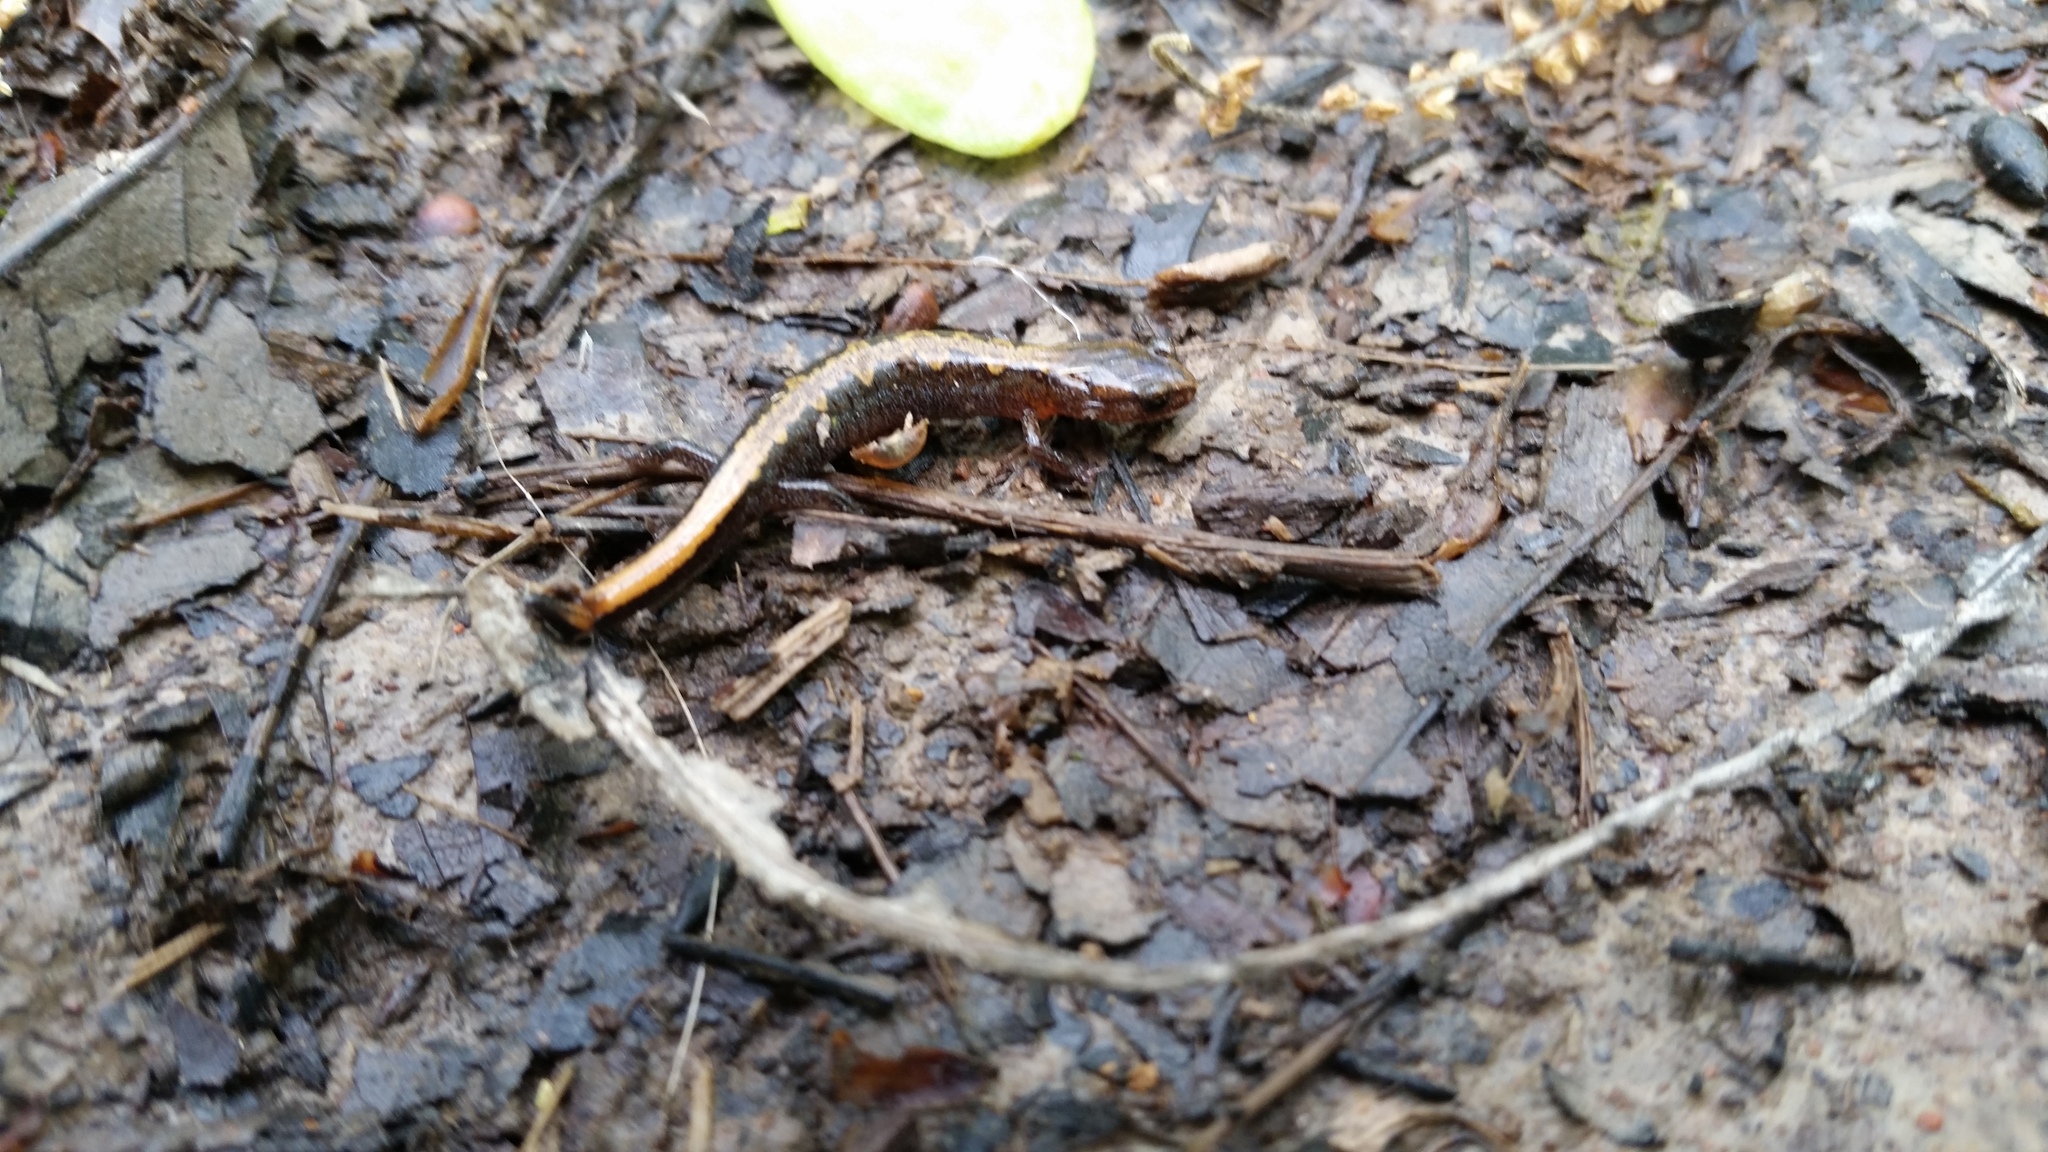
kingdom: Animalia
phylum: Chordata
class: Amphibia
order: Caudata
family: Plethodontidae
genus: Plethodon
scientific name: Plethodon dorsalis
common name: Northern zigzag salamander
